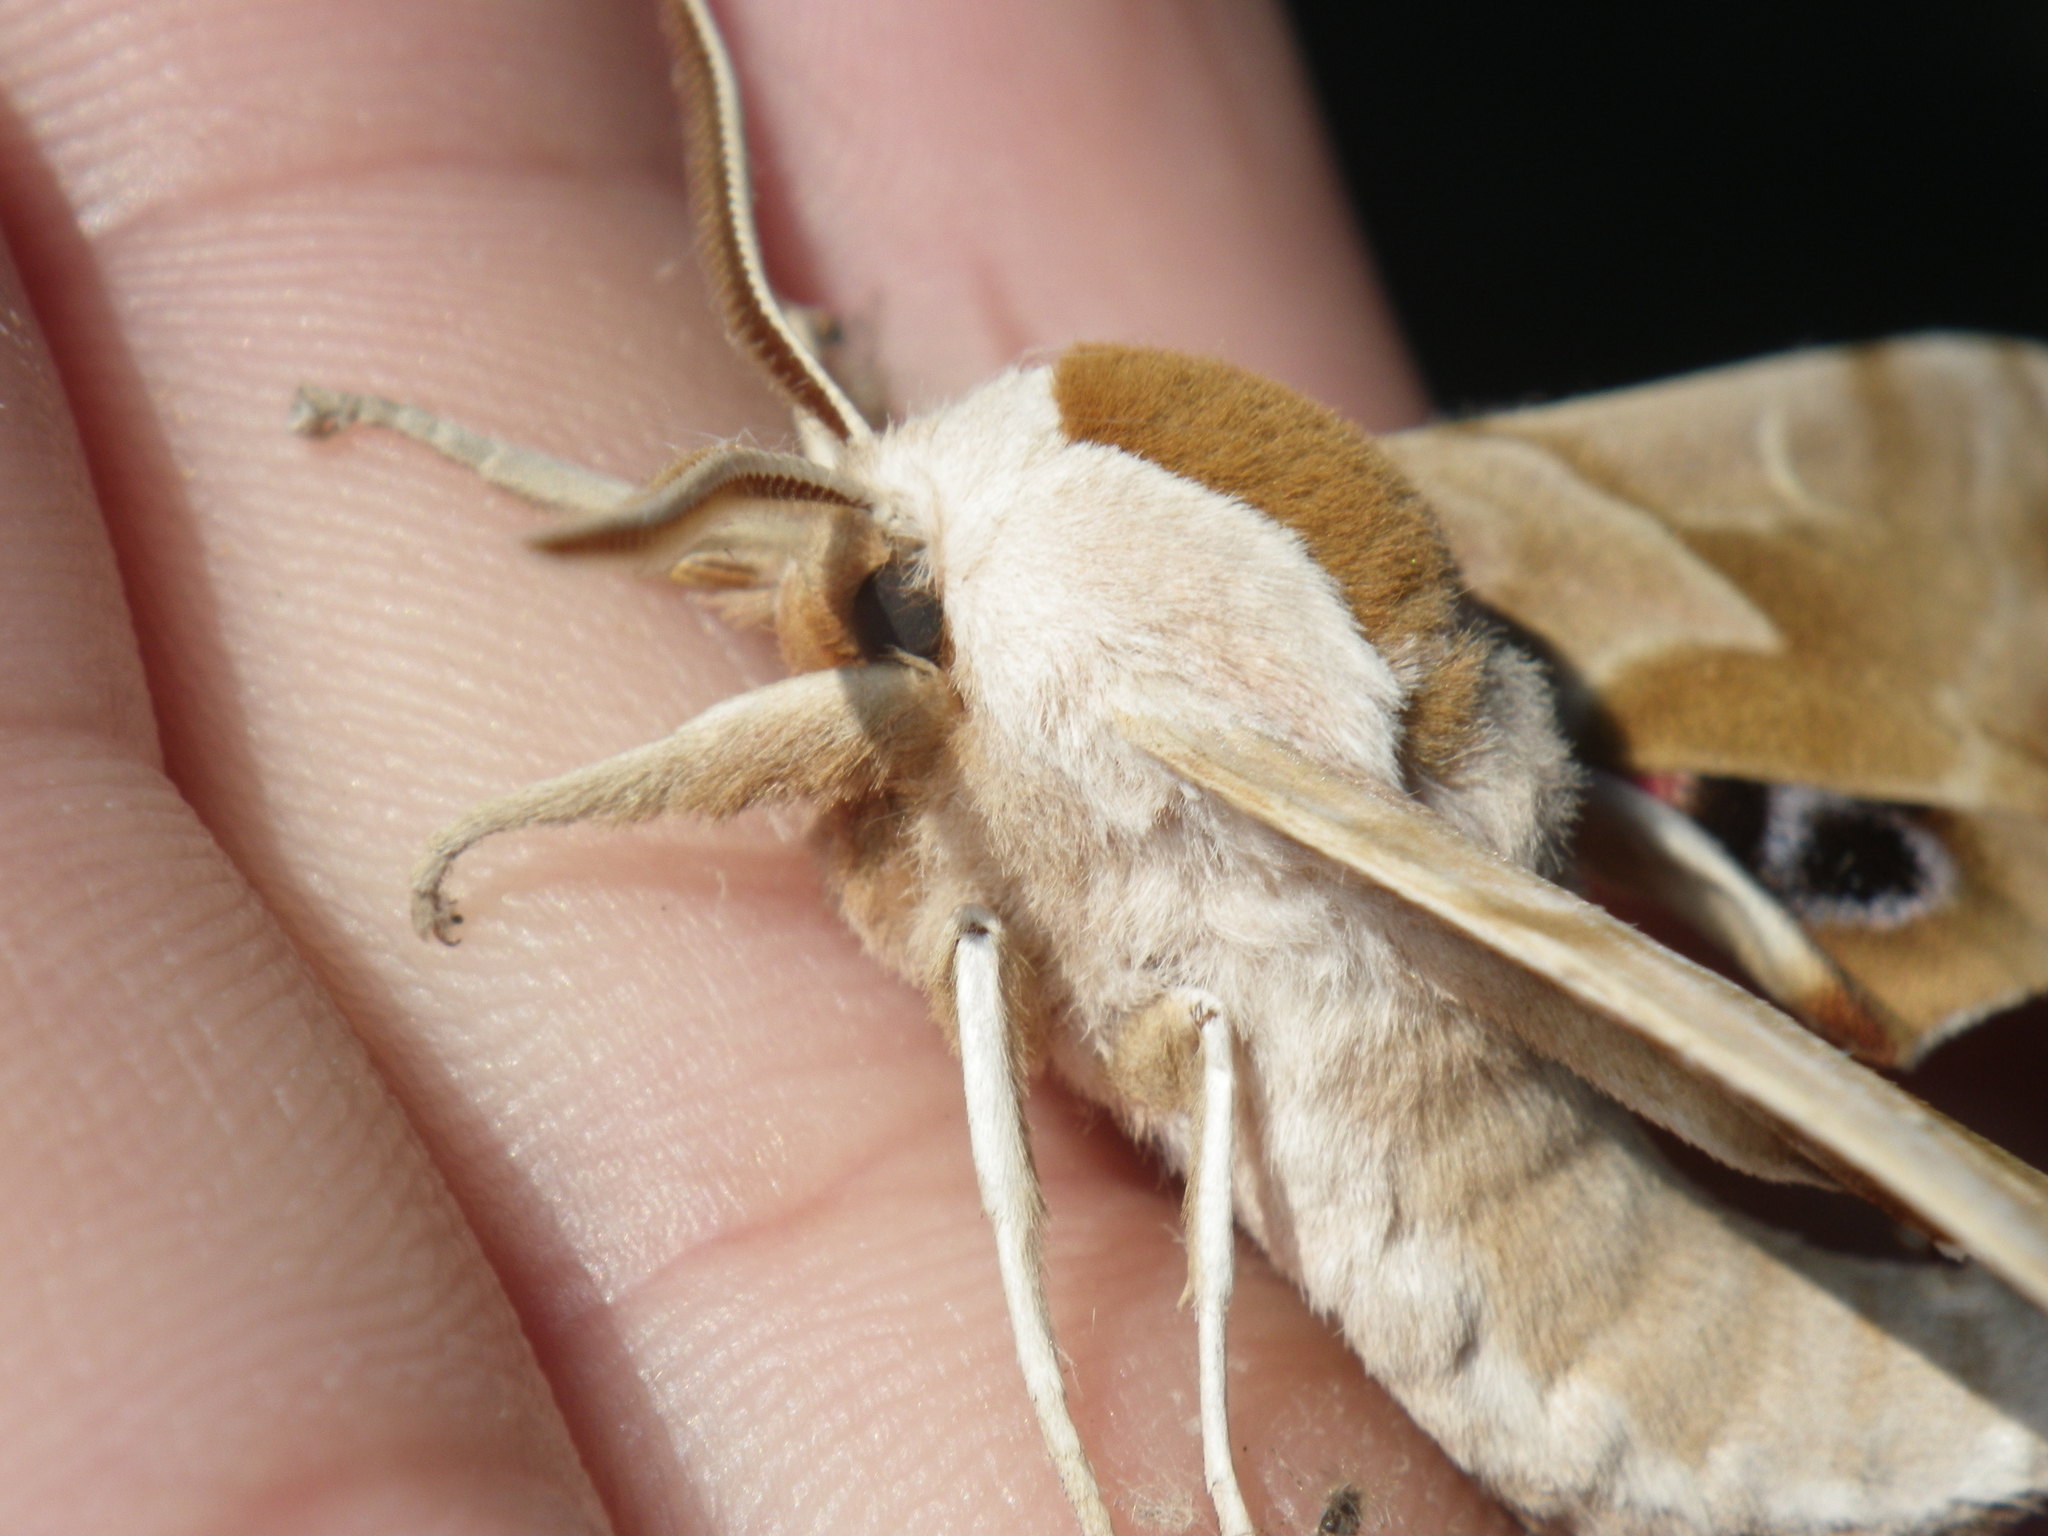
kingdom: Animalia
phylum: Arthropoda
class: Insecta
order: Lepidoptera
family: Sphingidae
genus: Smerinthus
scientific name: Smerinthus cerisyi
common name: Cerisy's sphinx moth
